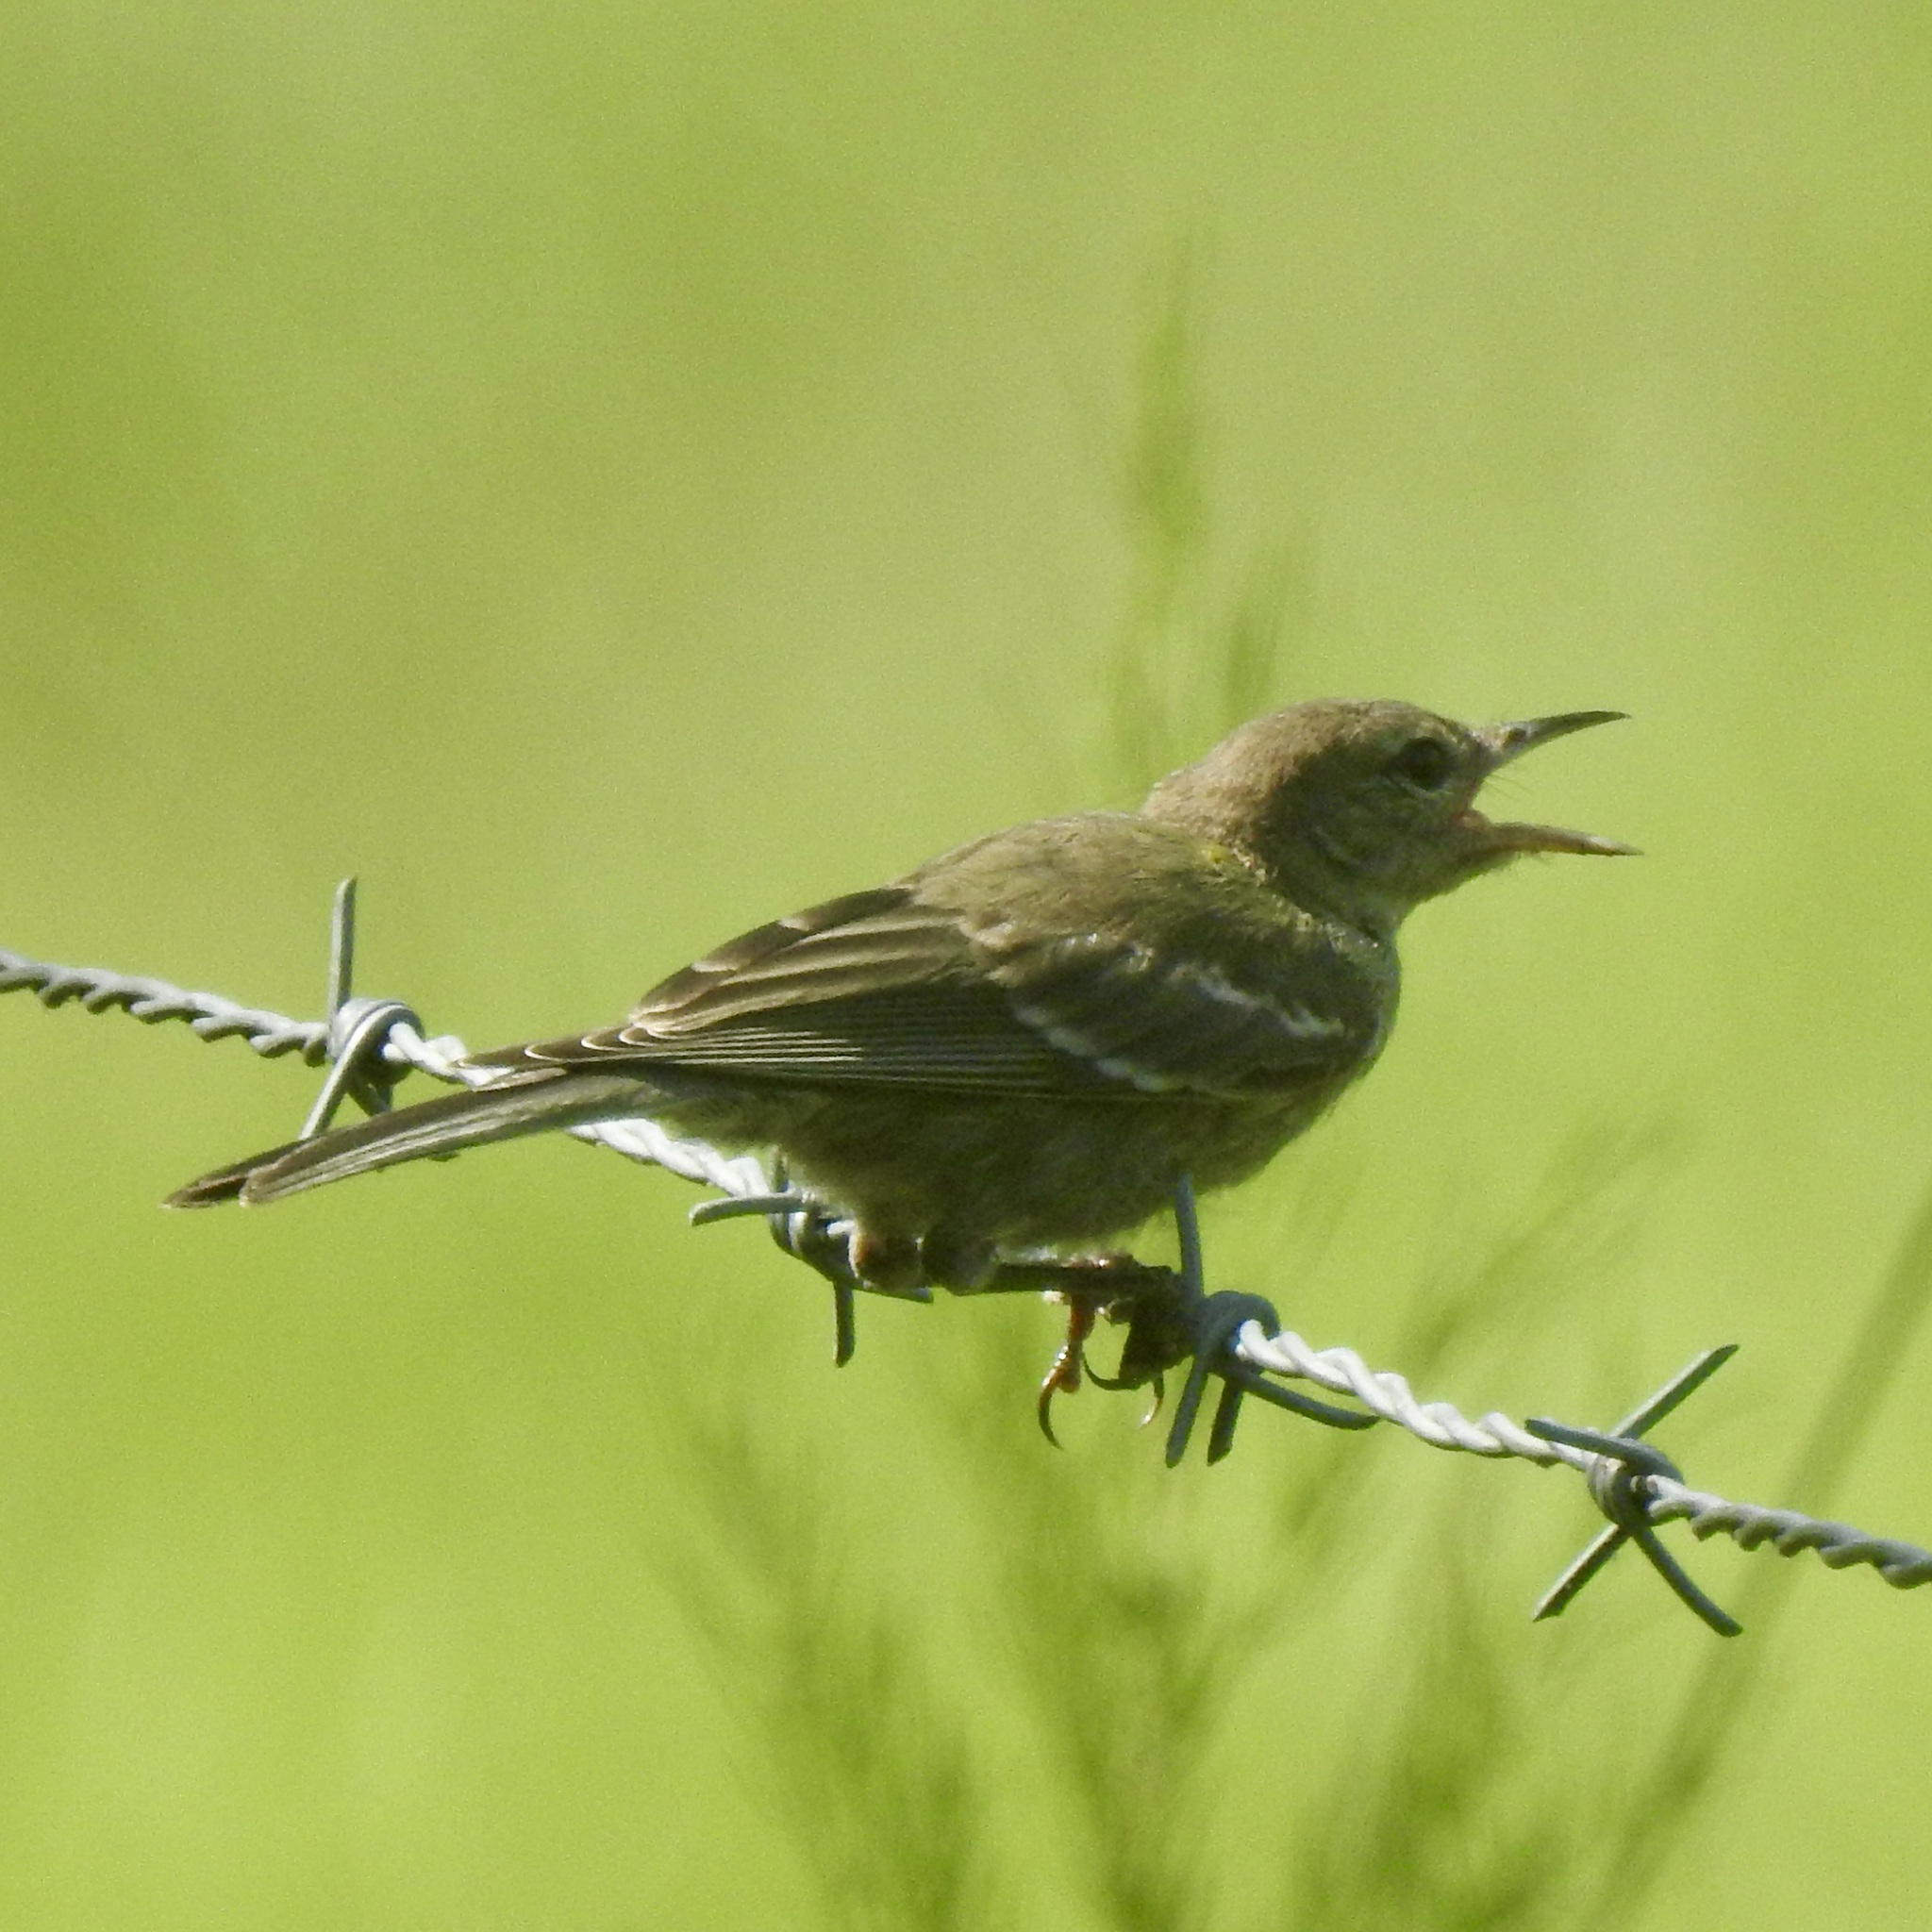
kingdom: Animalia
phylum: Chordata
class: Aves
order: Passeriformes
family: Parulidae
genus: Setophaga
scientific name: Setophaga pinus
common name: Pine warbler
